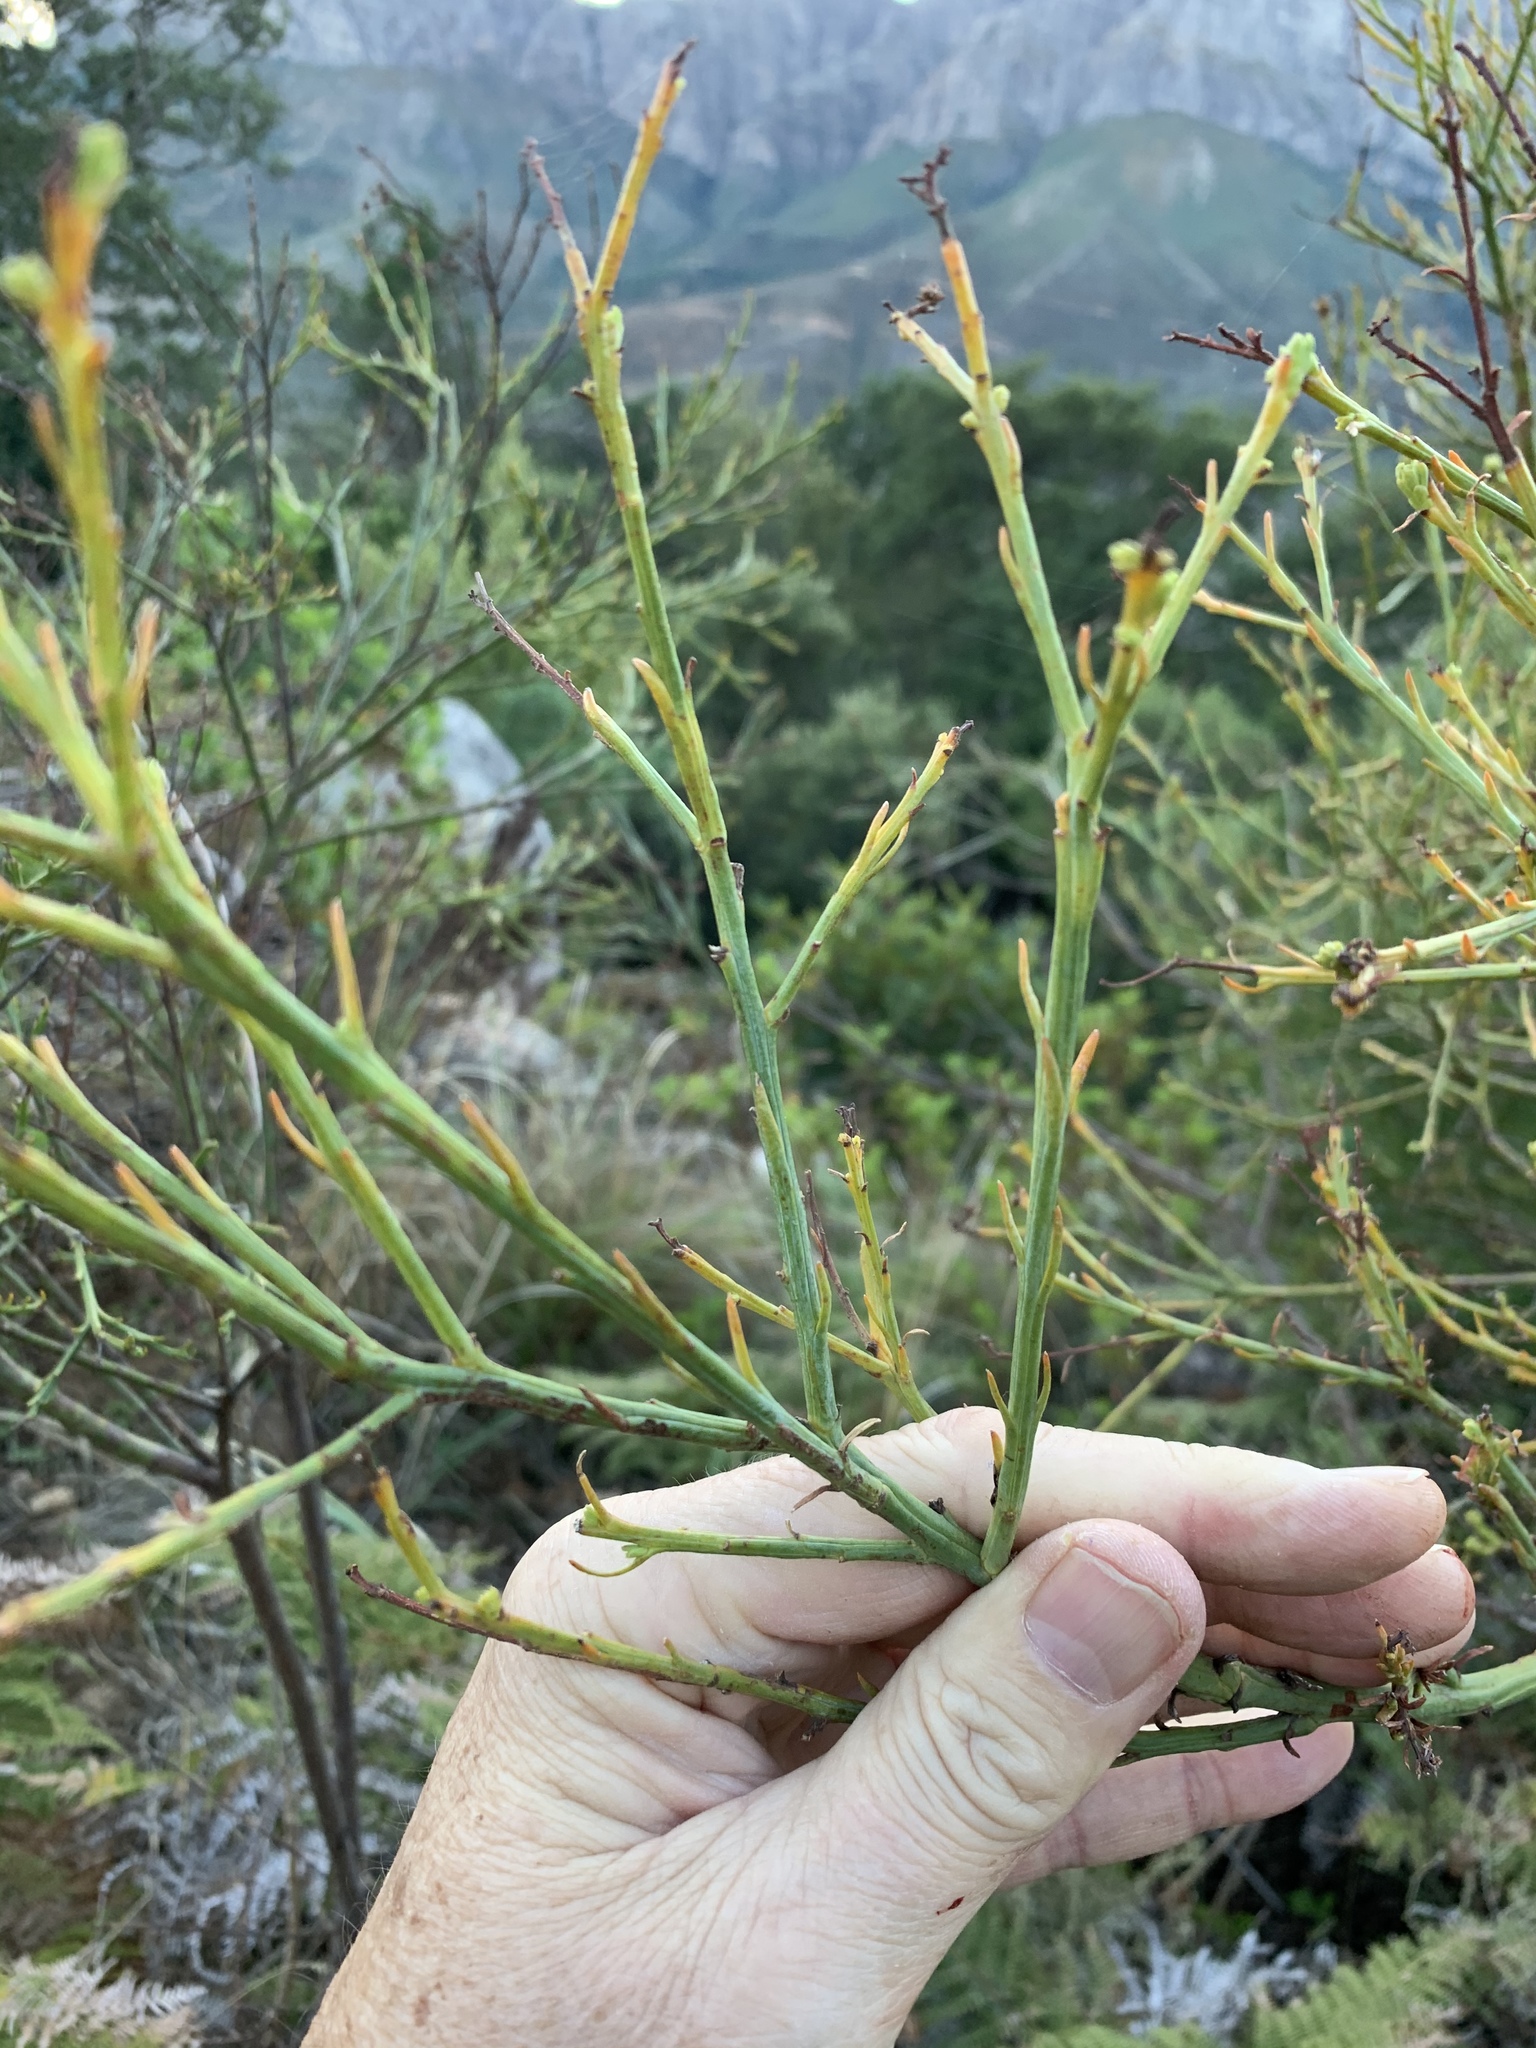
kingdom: Plantae
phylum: Tracheophyta
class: Magnoliopsida
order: Santalales
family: Thesiaceae
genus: Thesium
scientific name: Thesium strictum
